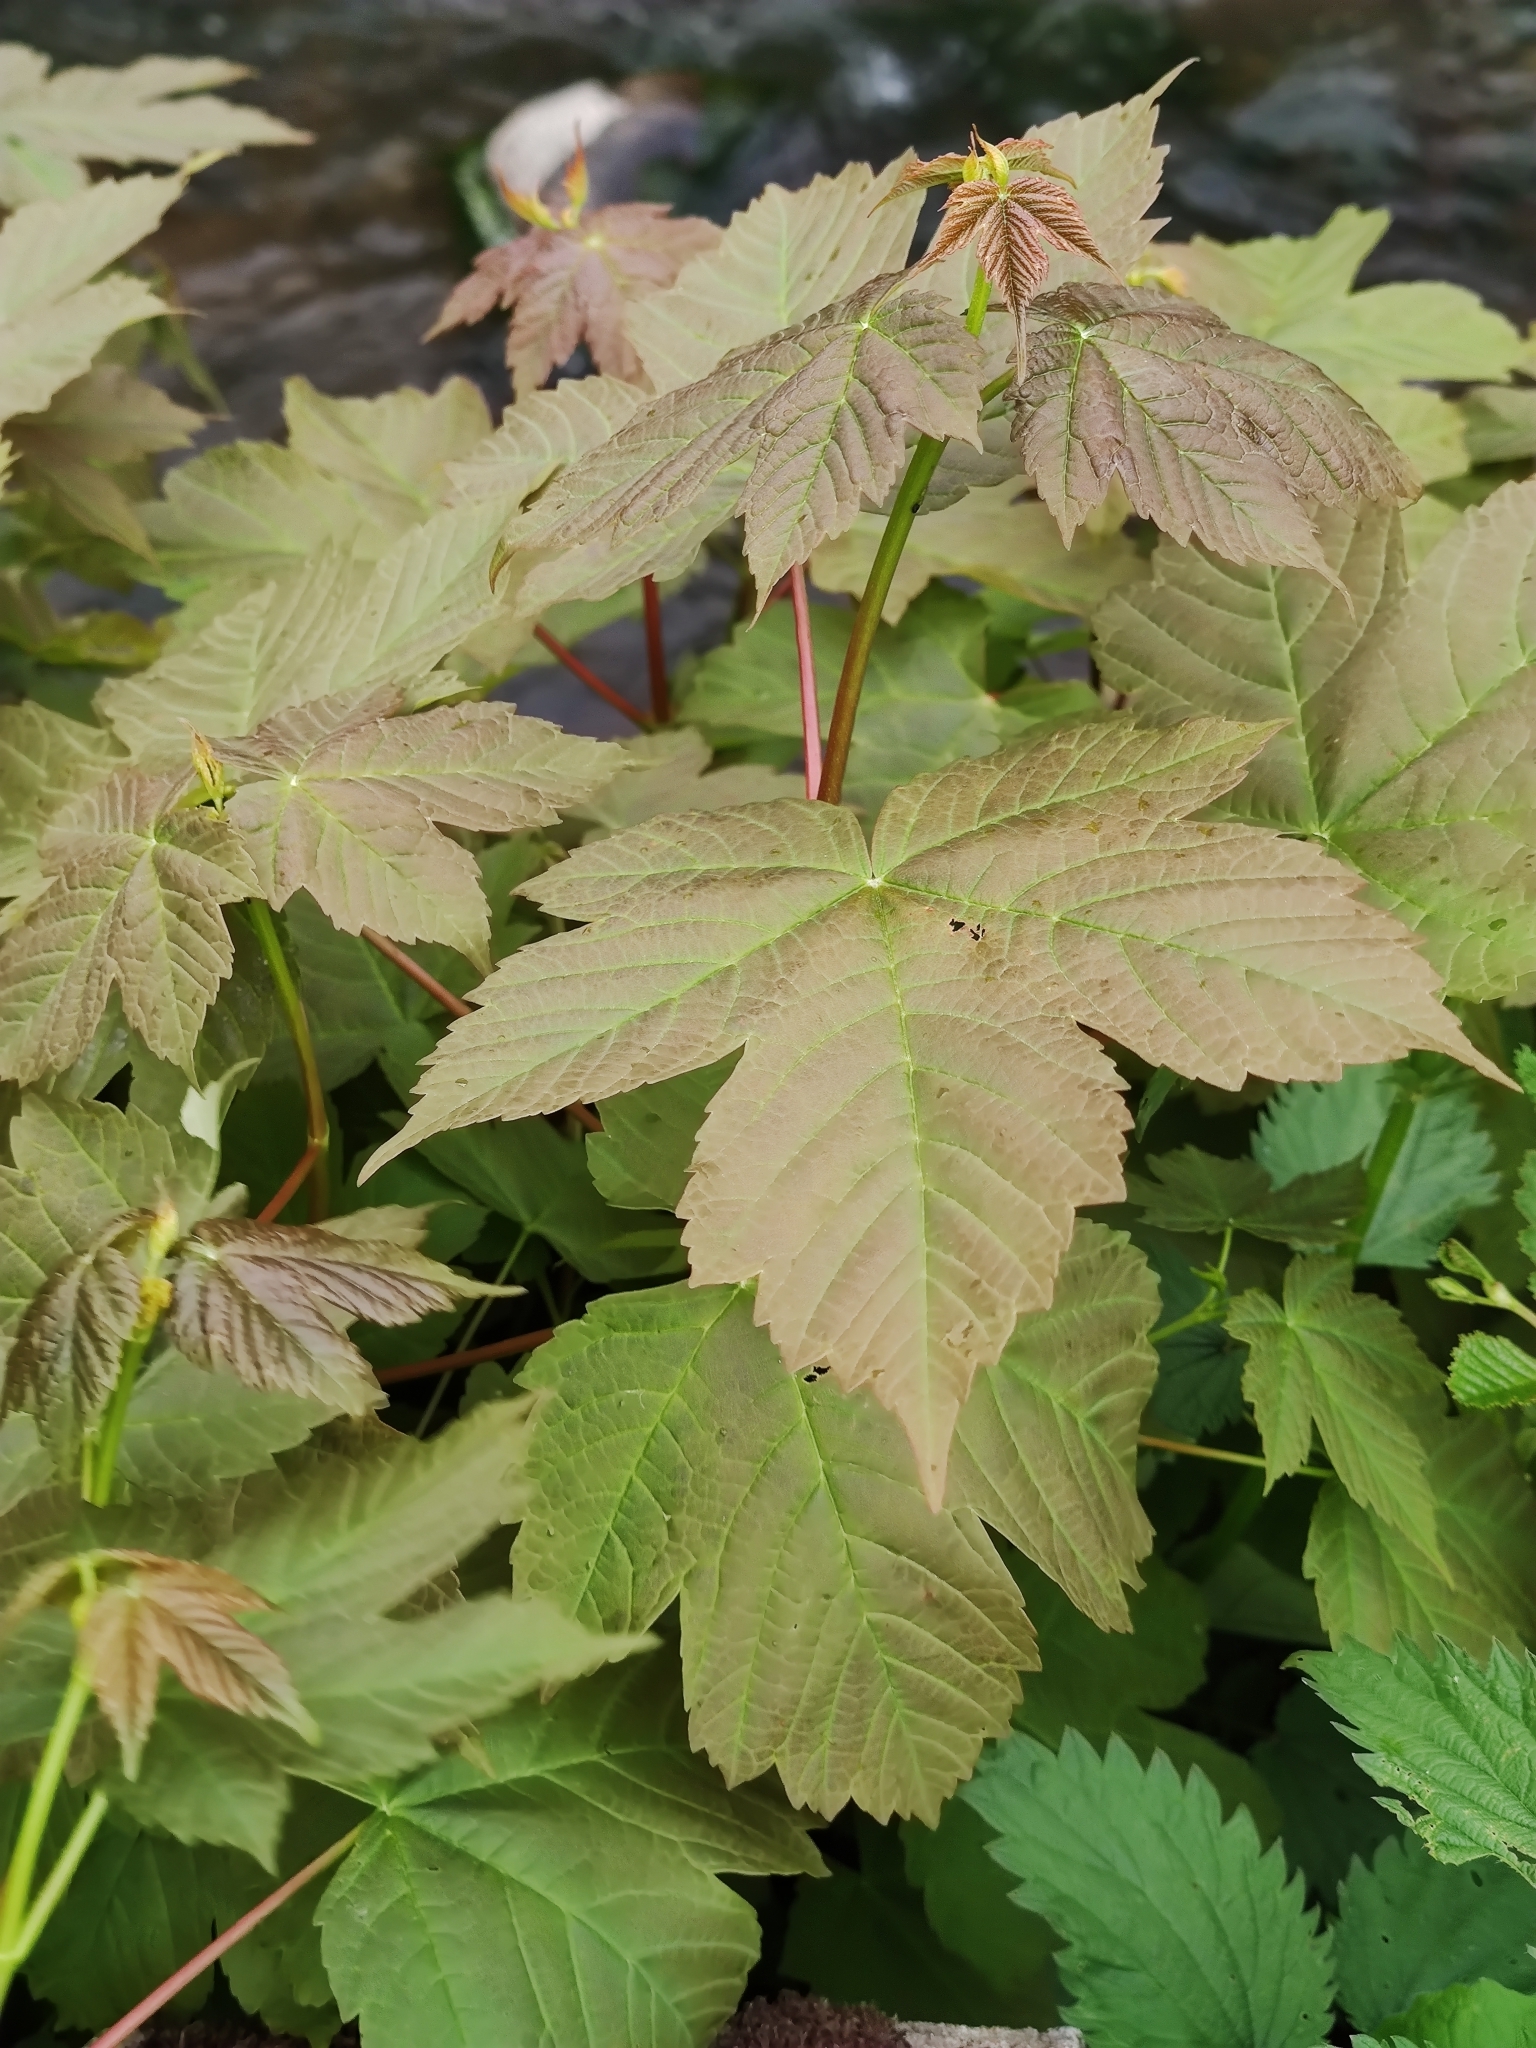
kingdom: Plantae
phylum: Tracheophyta
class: Magnoliopsida
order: Sapindales
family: Sapindaceae
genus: Acer
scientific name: Acer pseudoplatanus
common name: Sycamore
